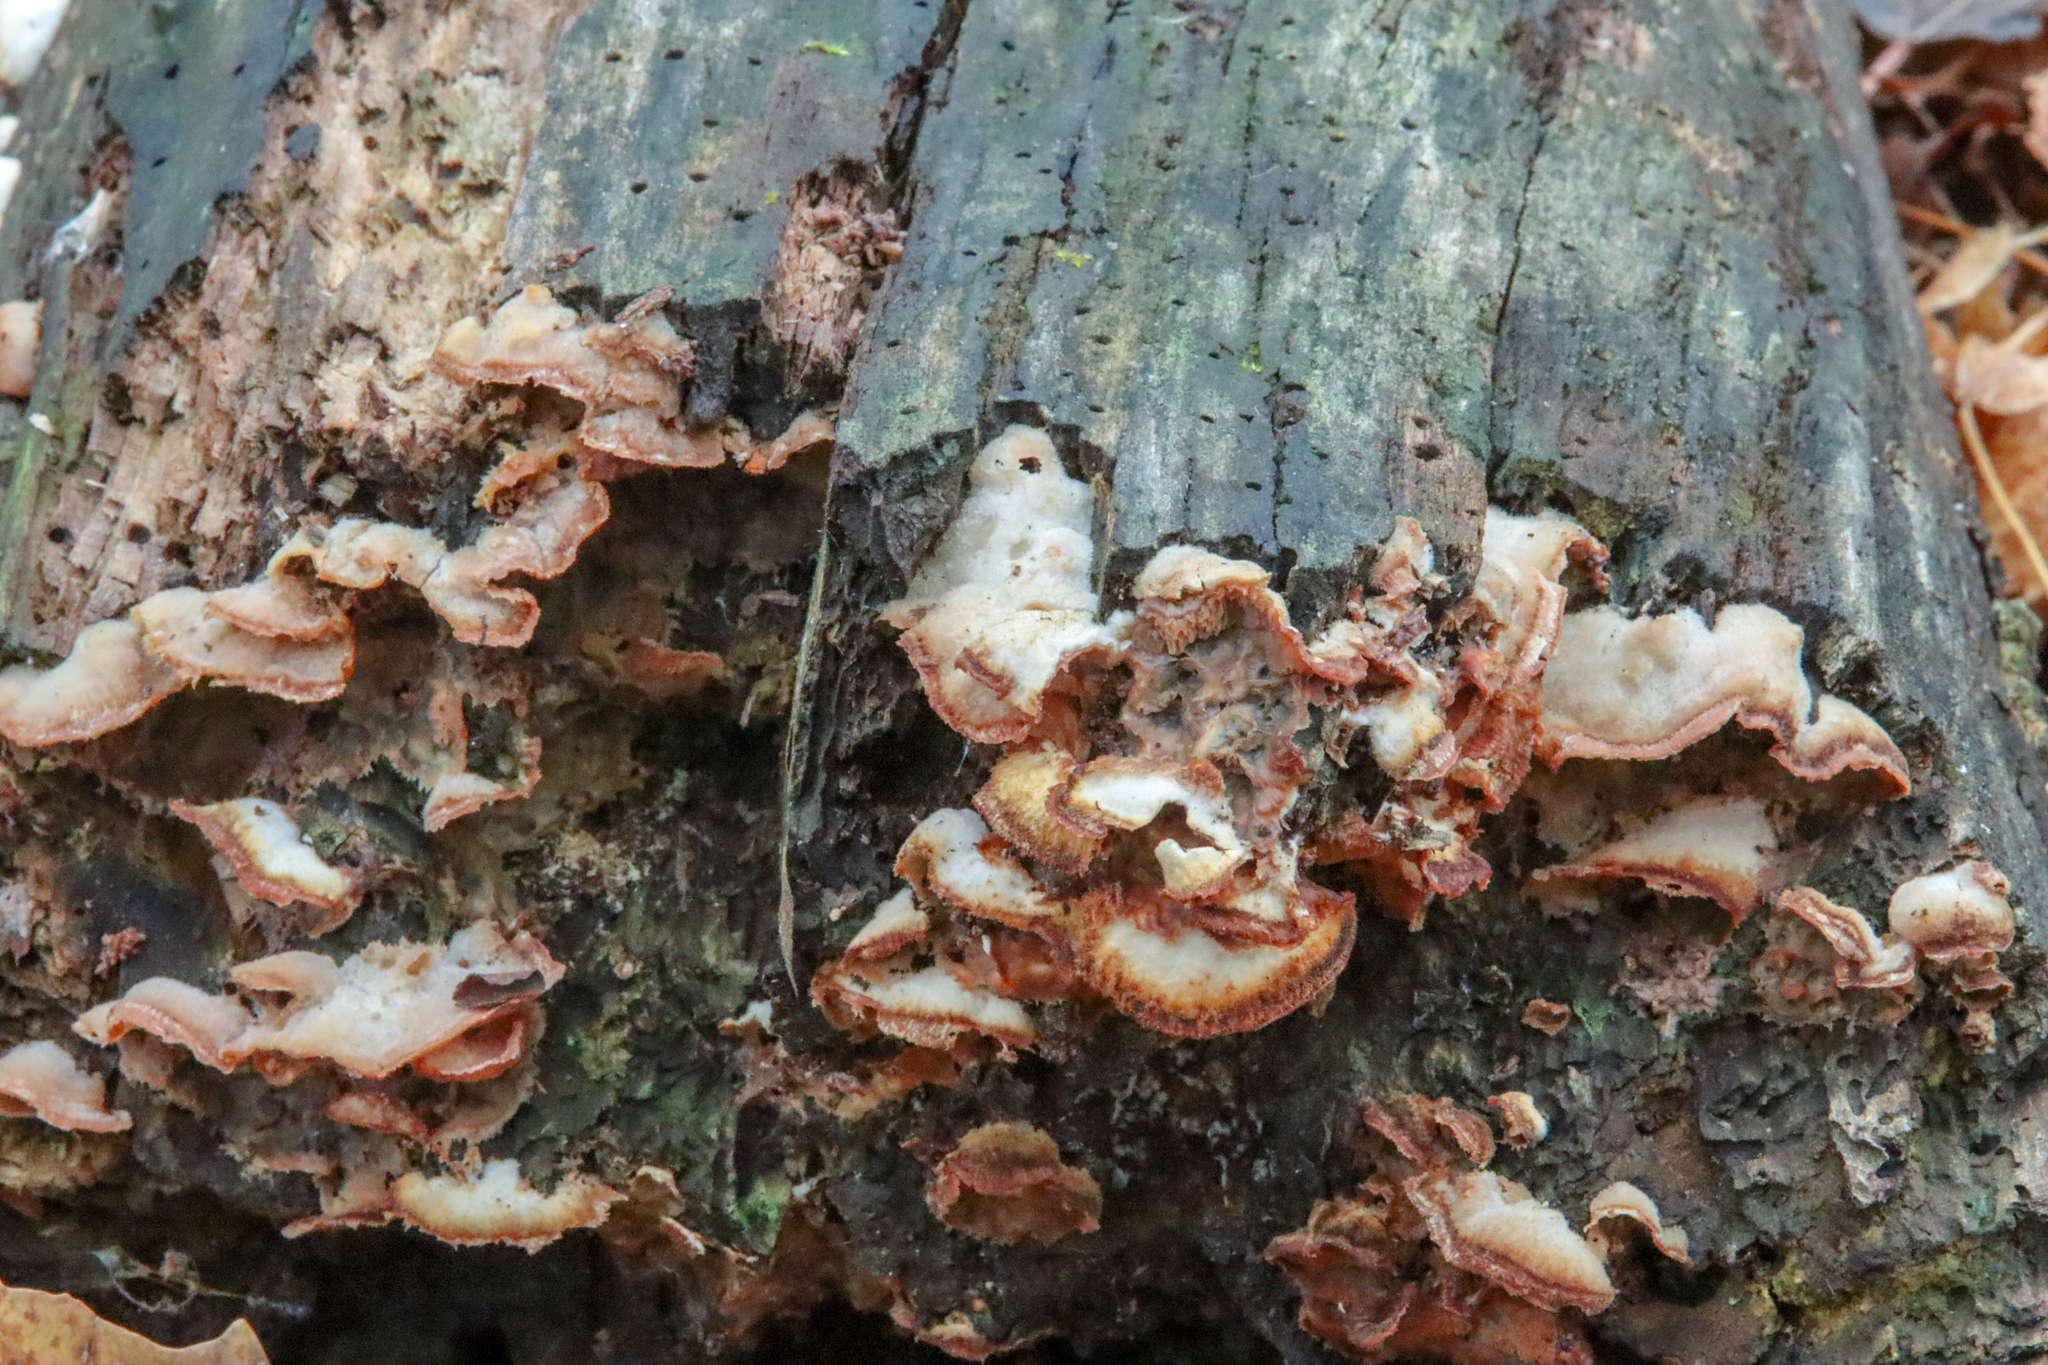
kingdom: Fungi
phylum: Basidiomycota
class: Agaricomycetes
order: Polyporales
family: Meruliaceae
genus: Phlebia
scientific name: Phlebia tremellosa
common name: Jelly rot
